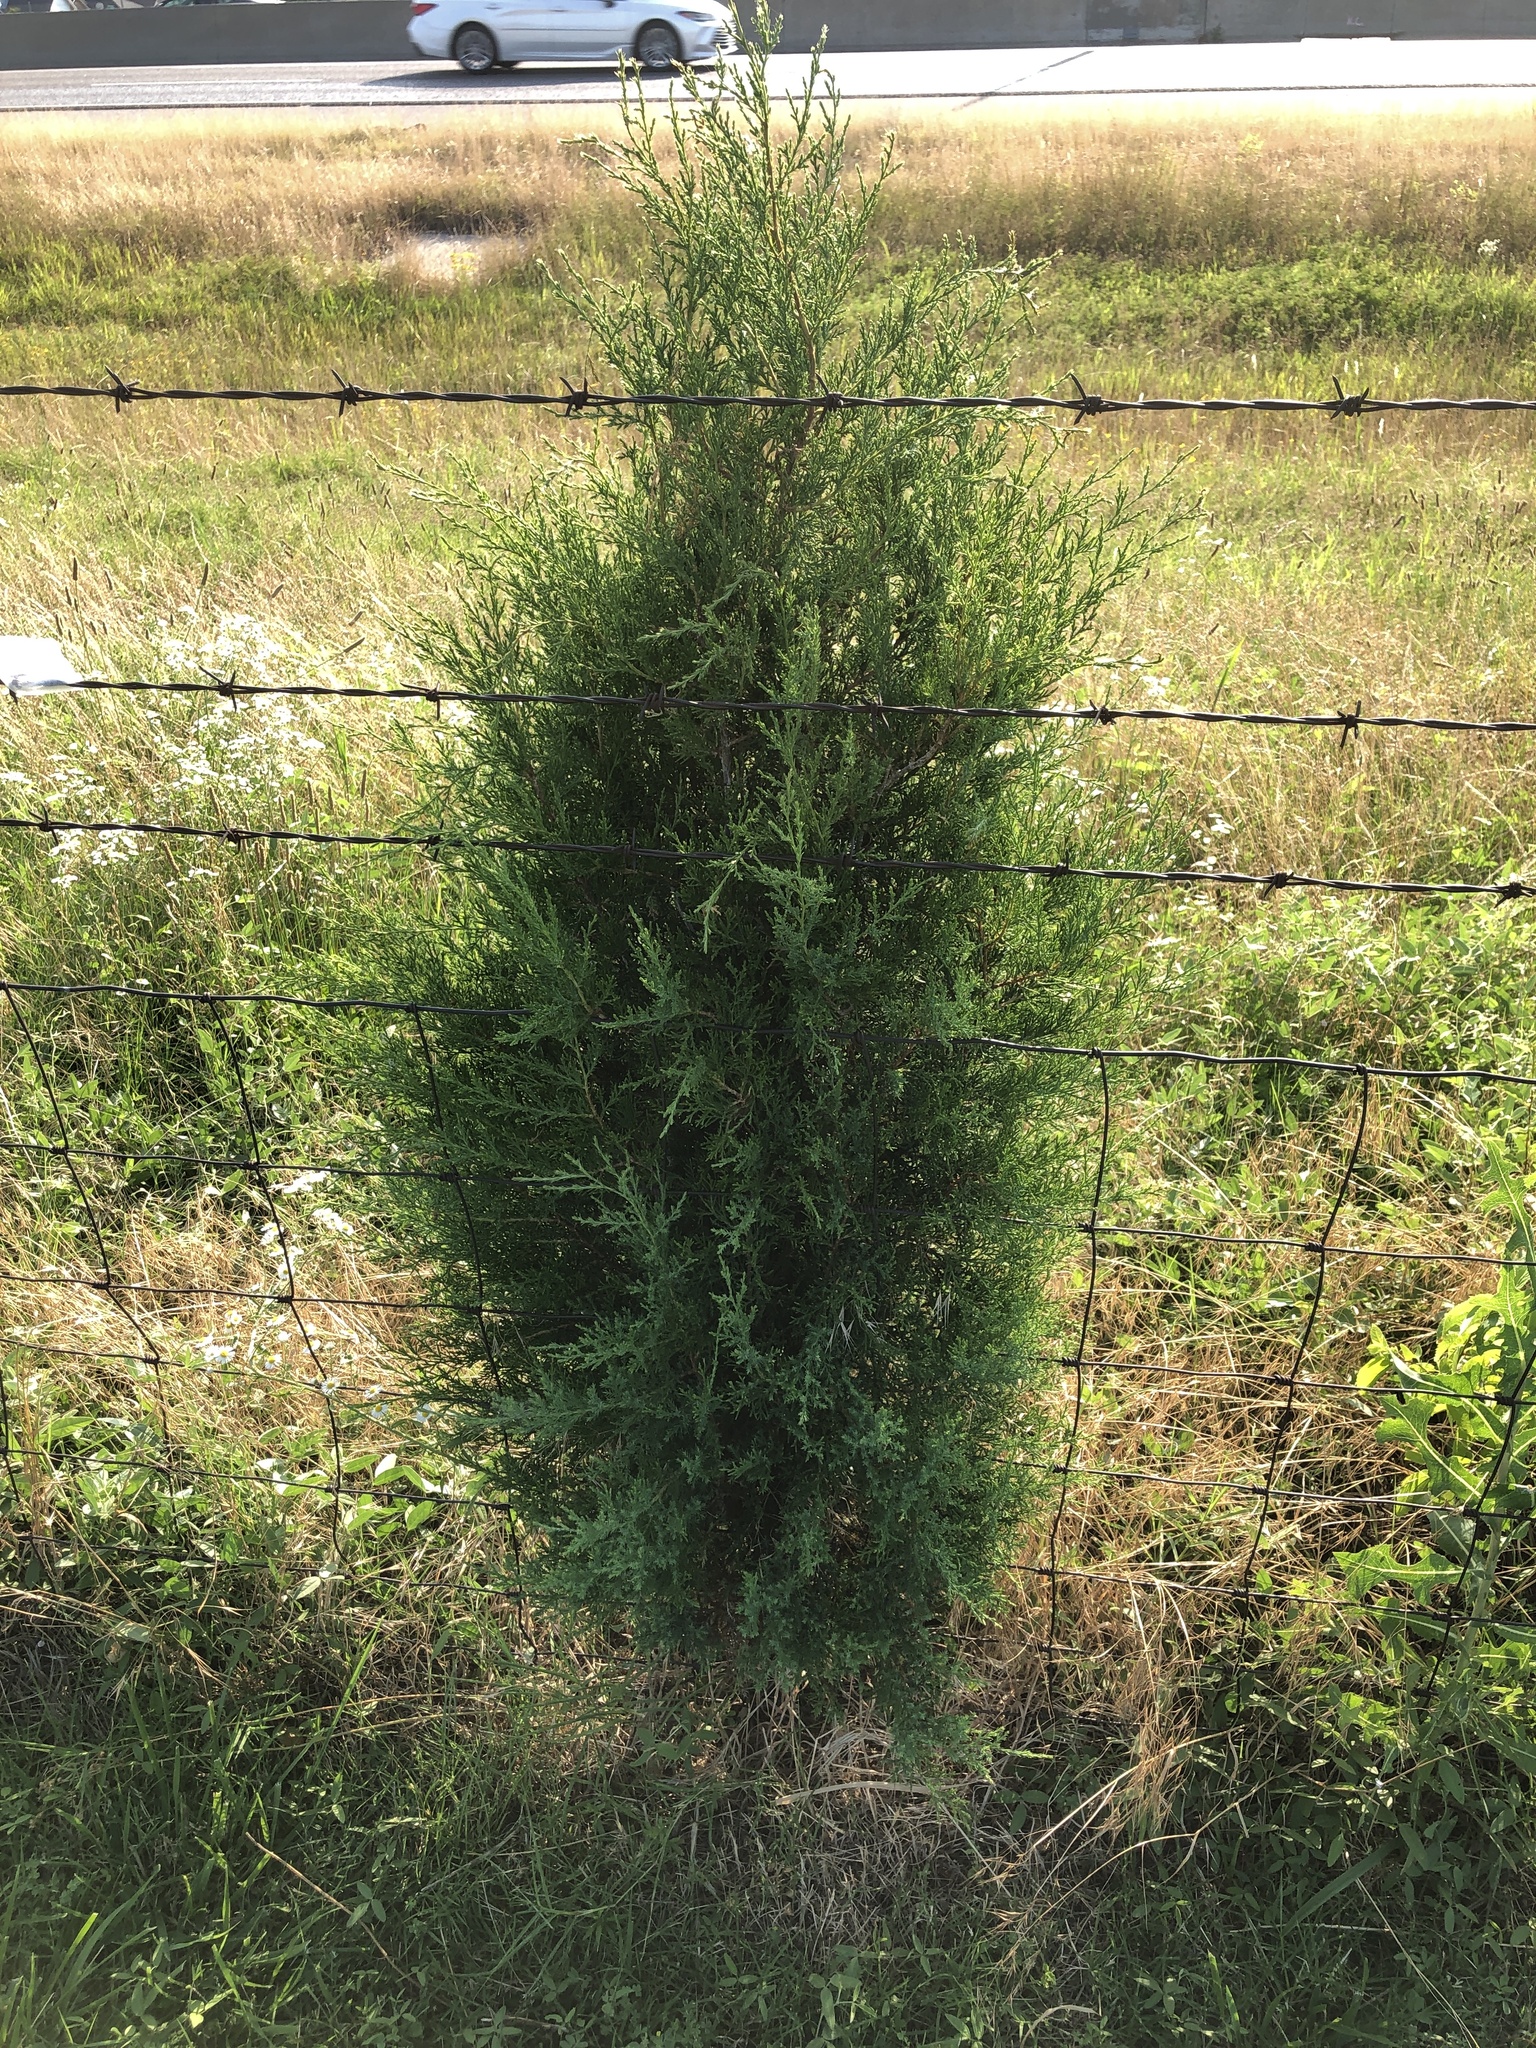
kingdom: Plantae
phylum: Tracheophyta
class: Pinopsida
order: Pinales
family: Cupressaceae
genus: Juniperus
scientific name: Juniperus virginiana
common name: Red juniper
